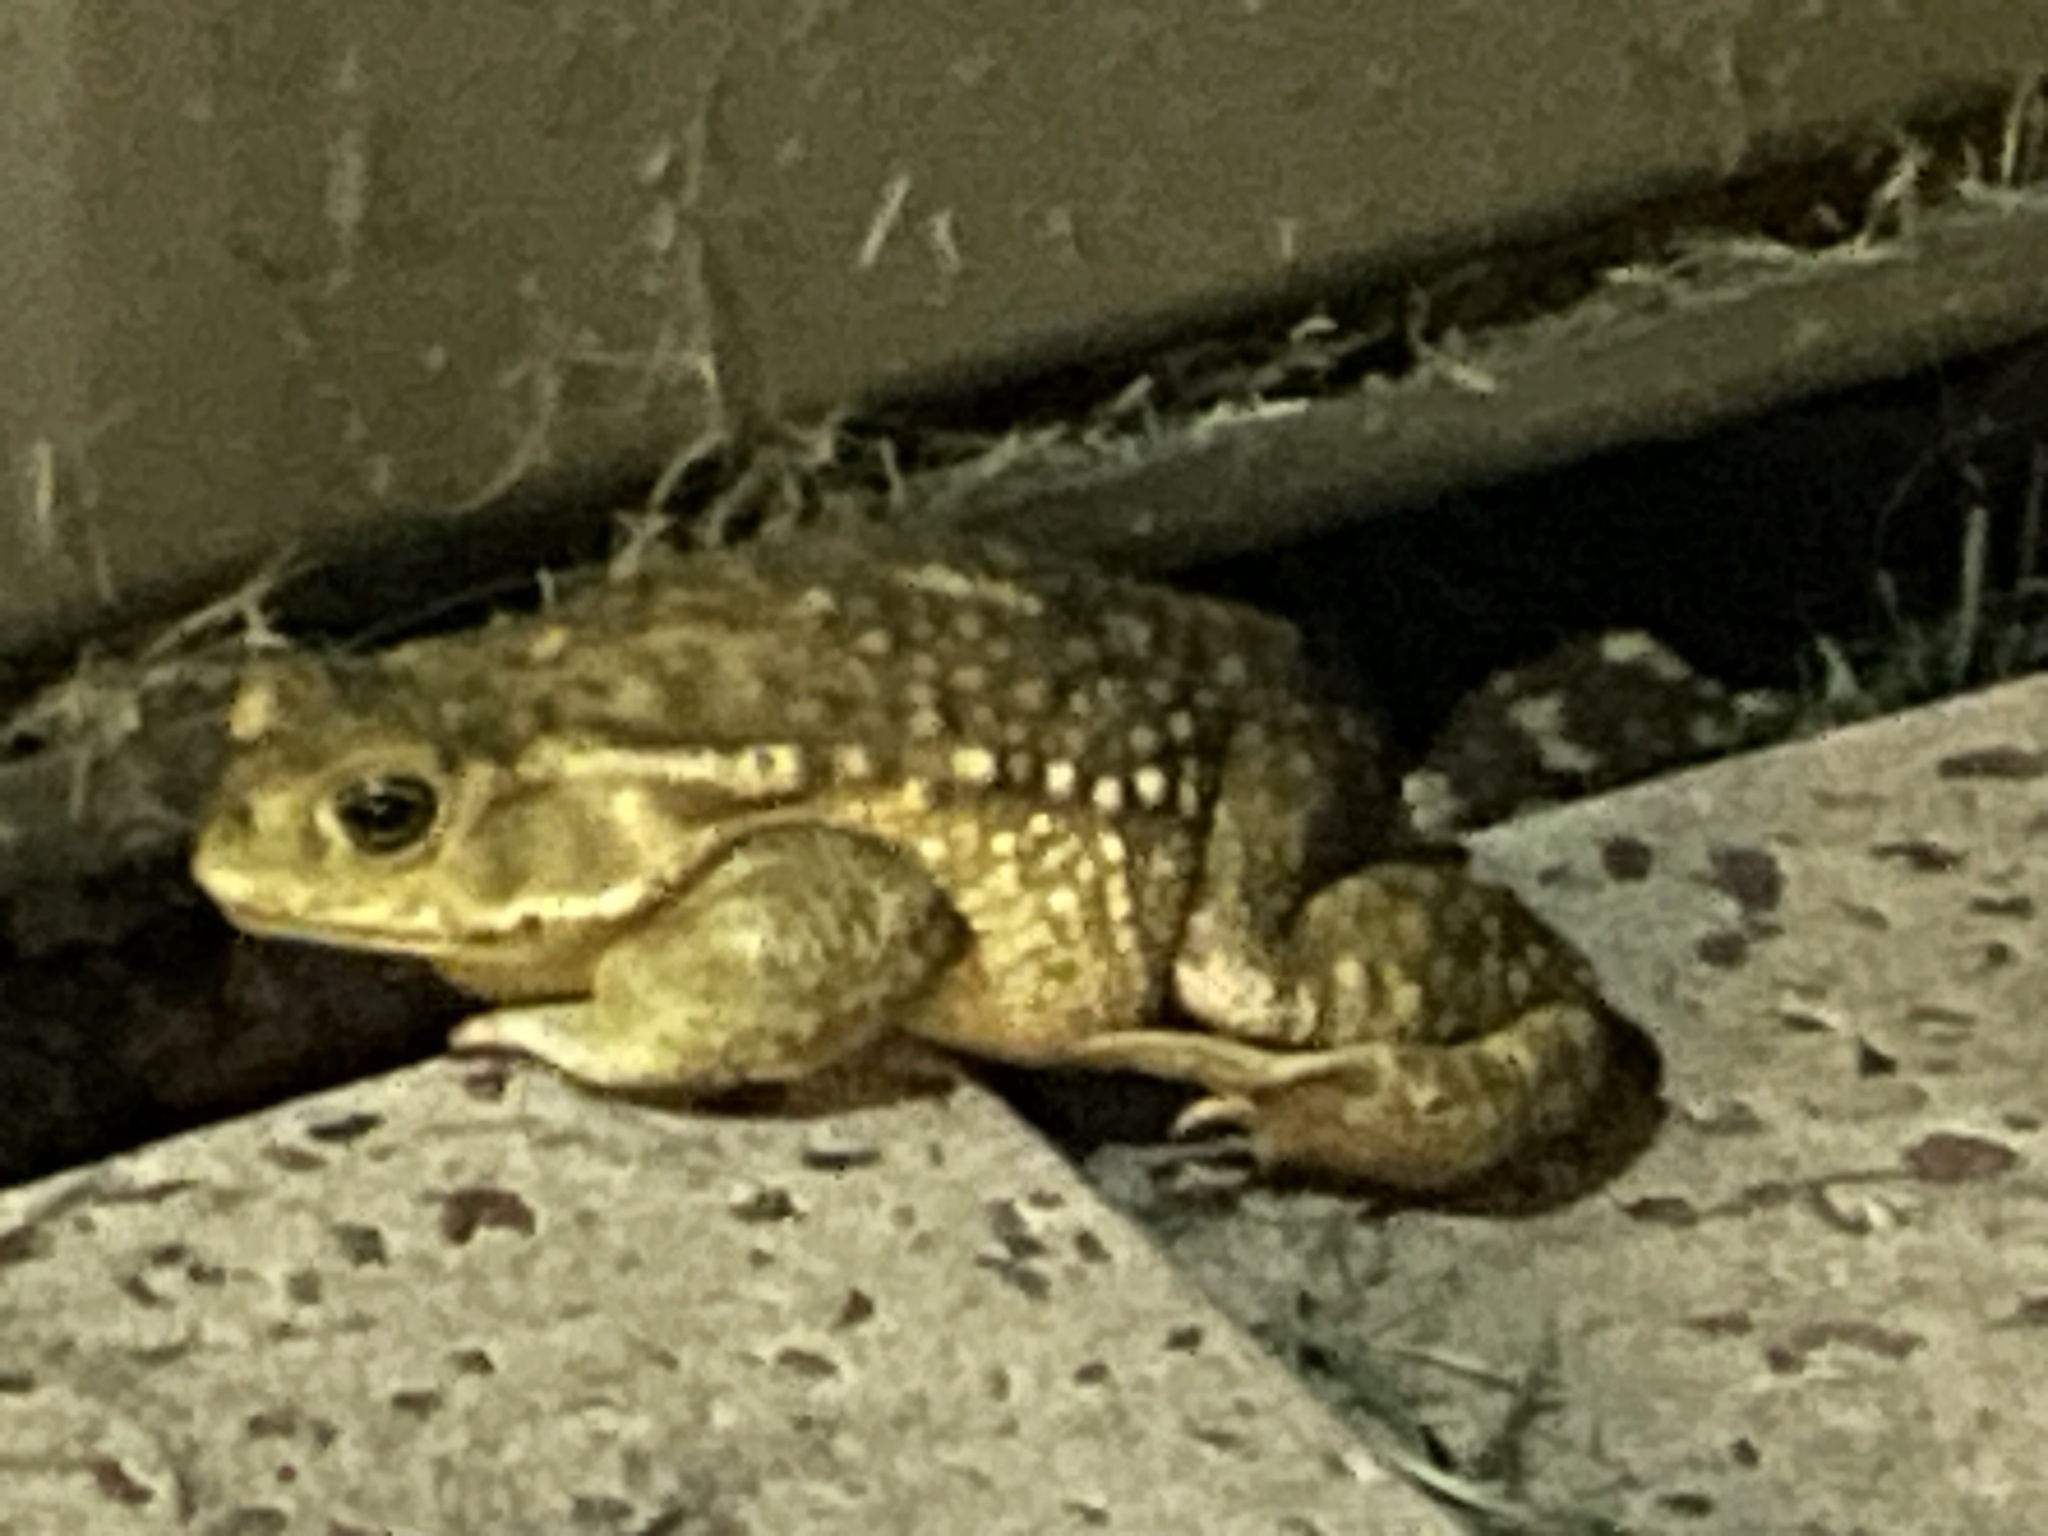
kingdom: Animalia
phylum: Chordata
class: Amphibia
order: Anura
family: Bufonidae
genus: Rhinella
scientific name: Rhinella arenarum
